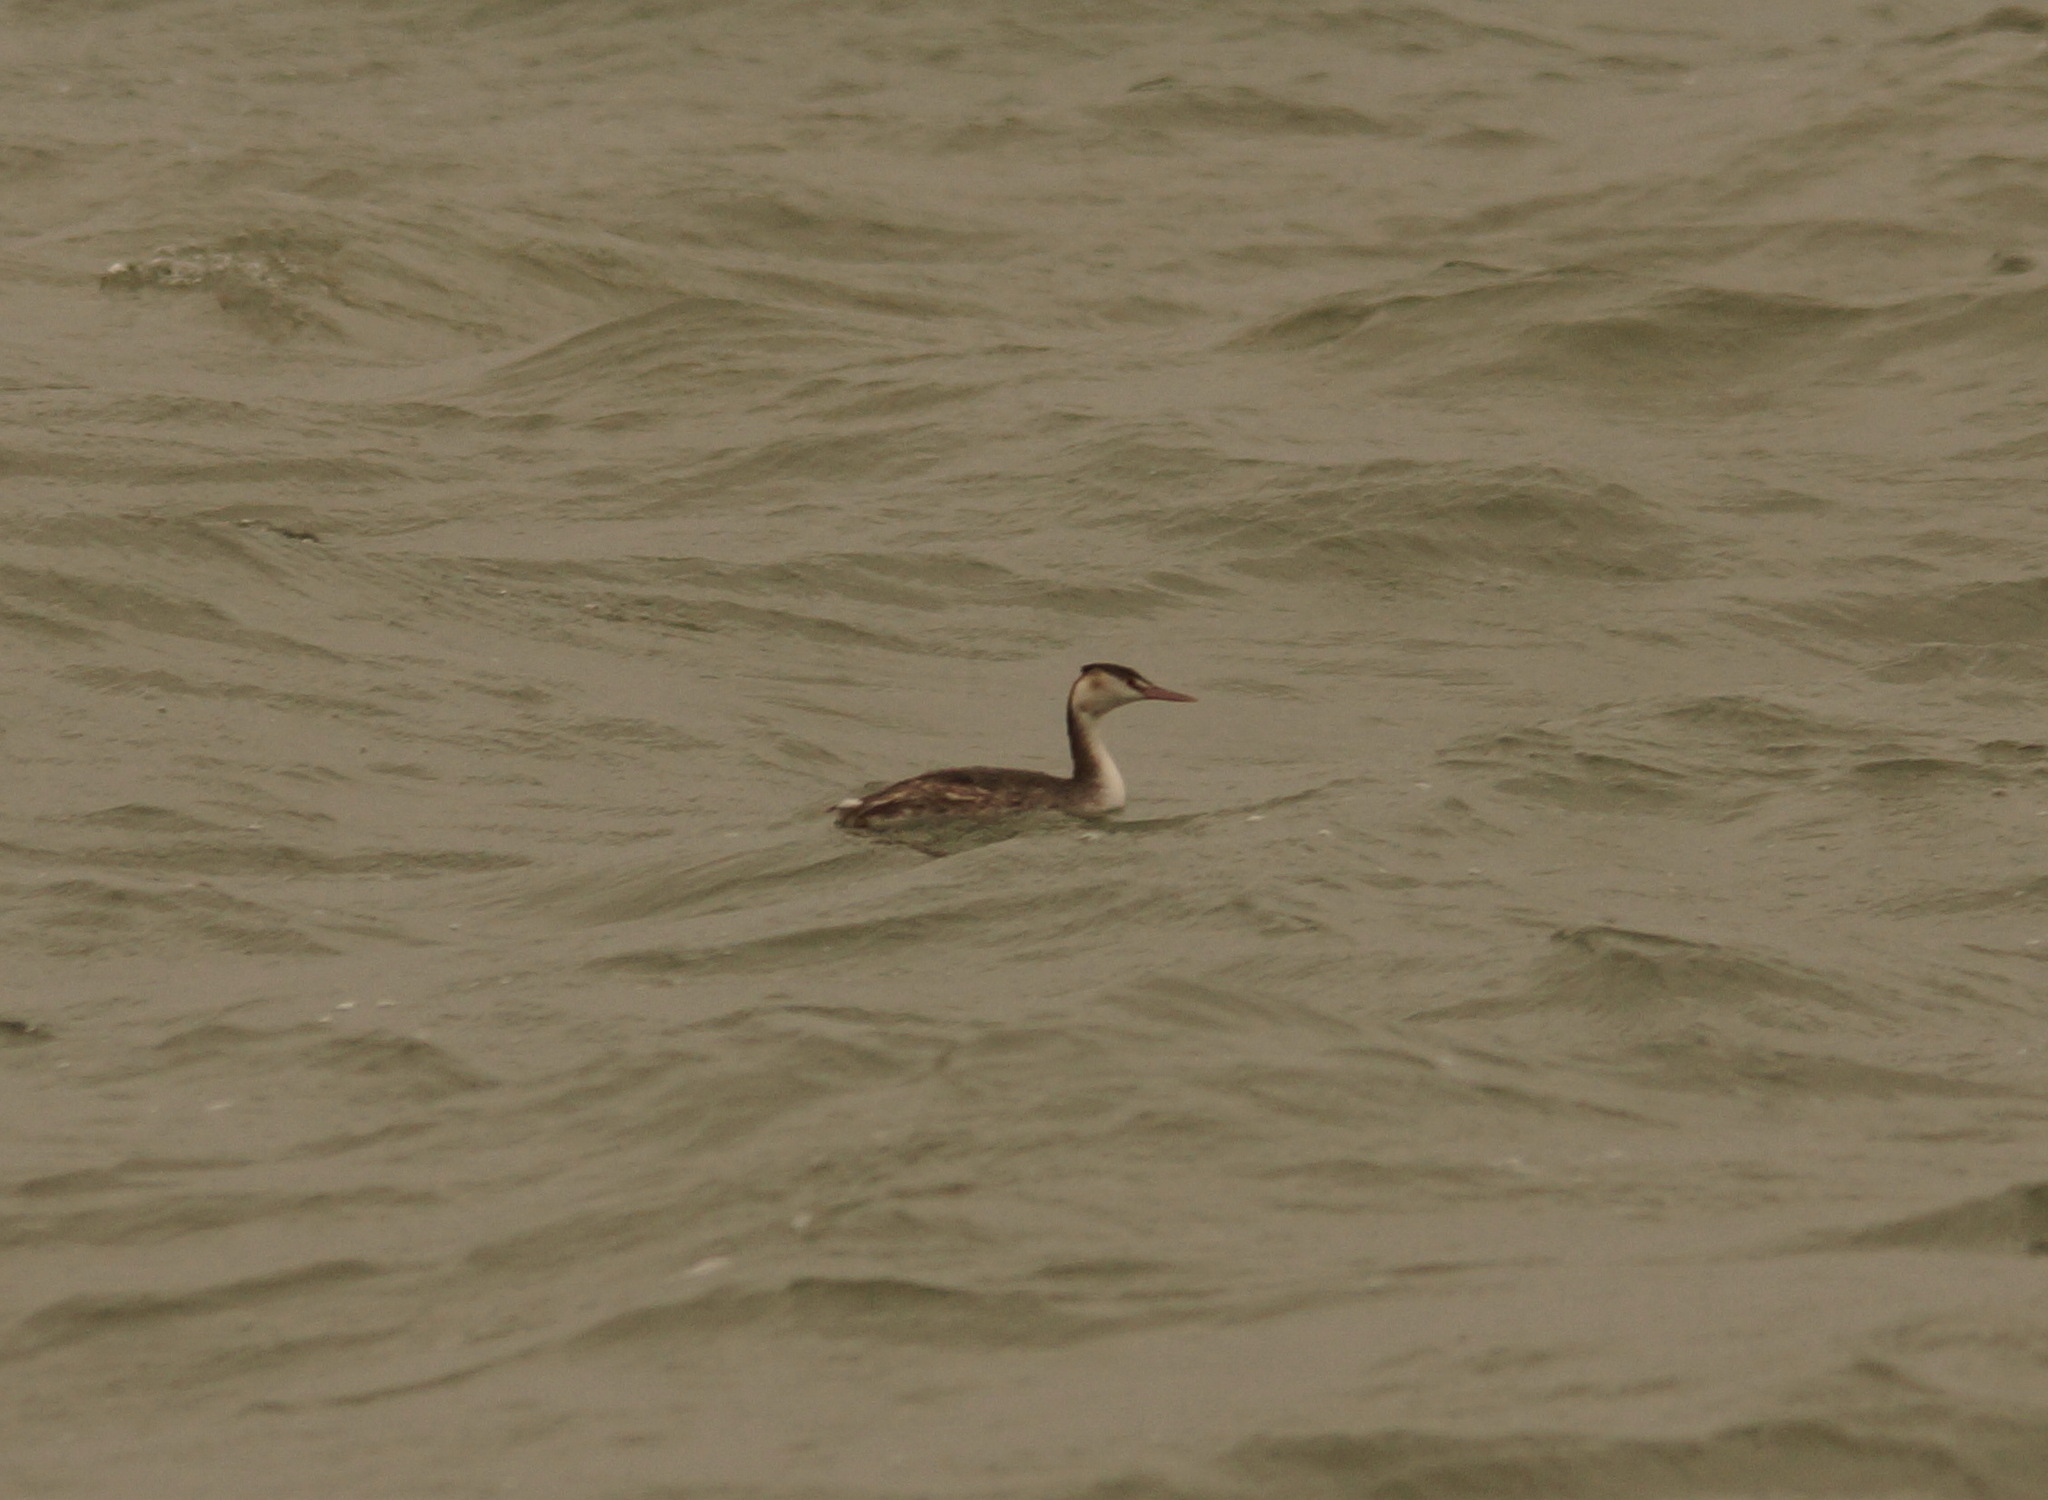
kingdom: Animalia
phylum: Chordata
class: Aves
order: Podicipediformes
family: Podicipedidae
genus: Podiceps
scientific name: Podiceps cristatus
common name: Great crested grebe
